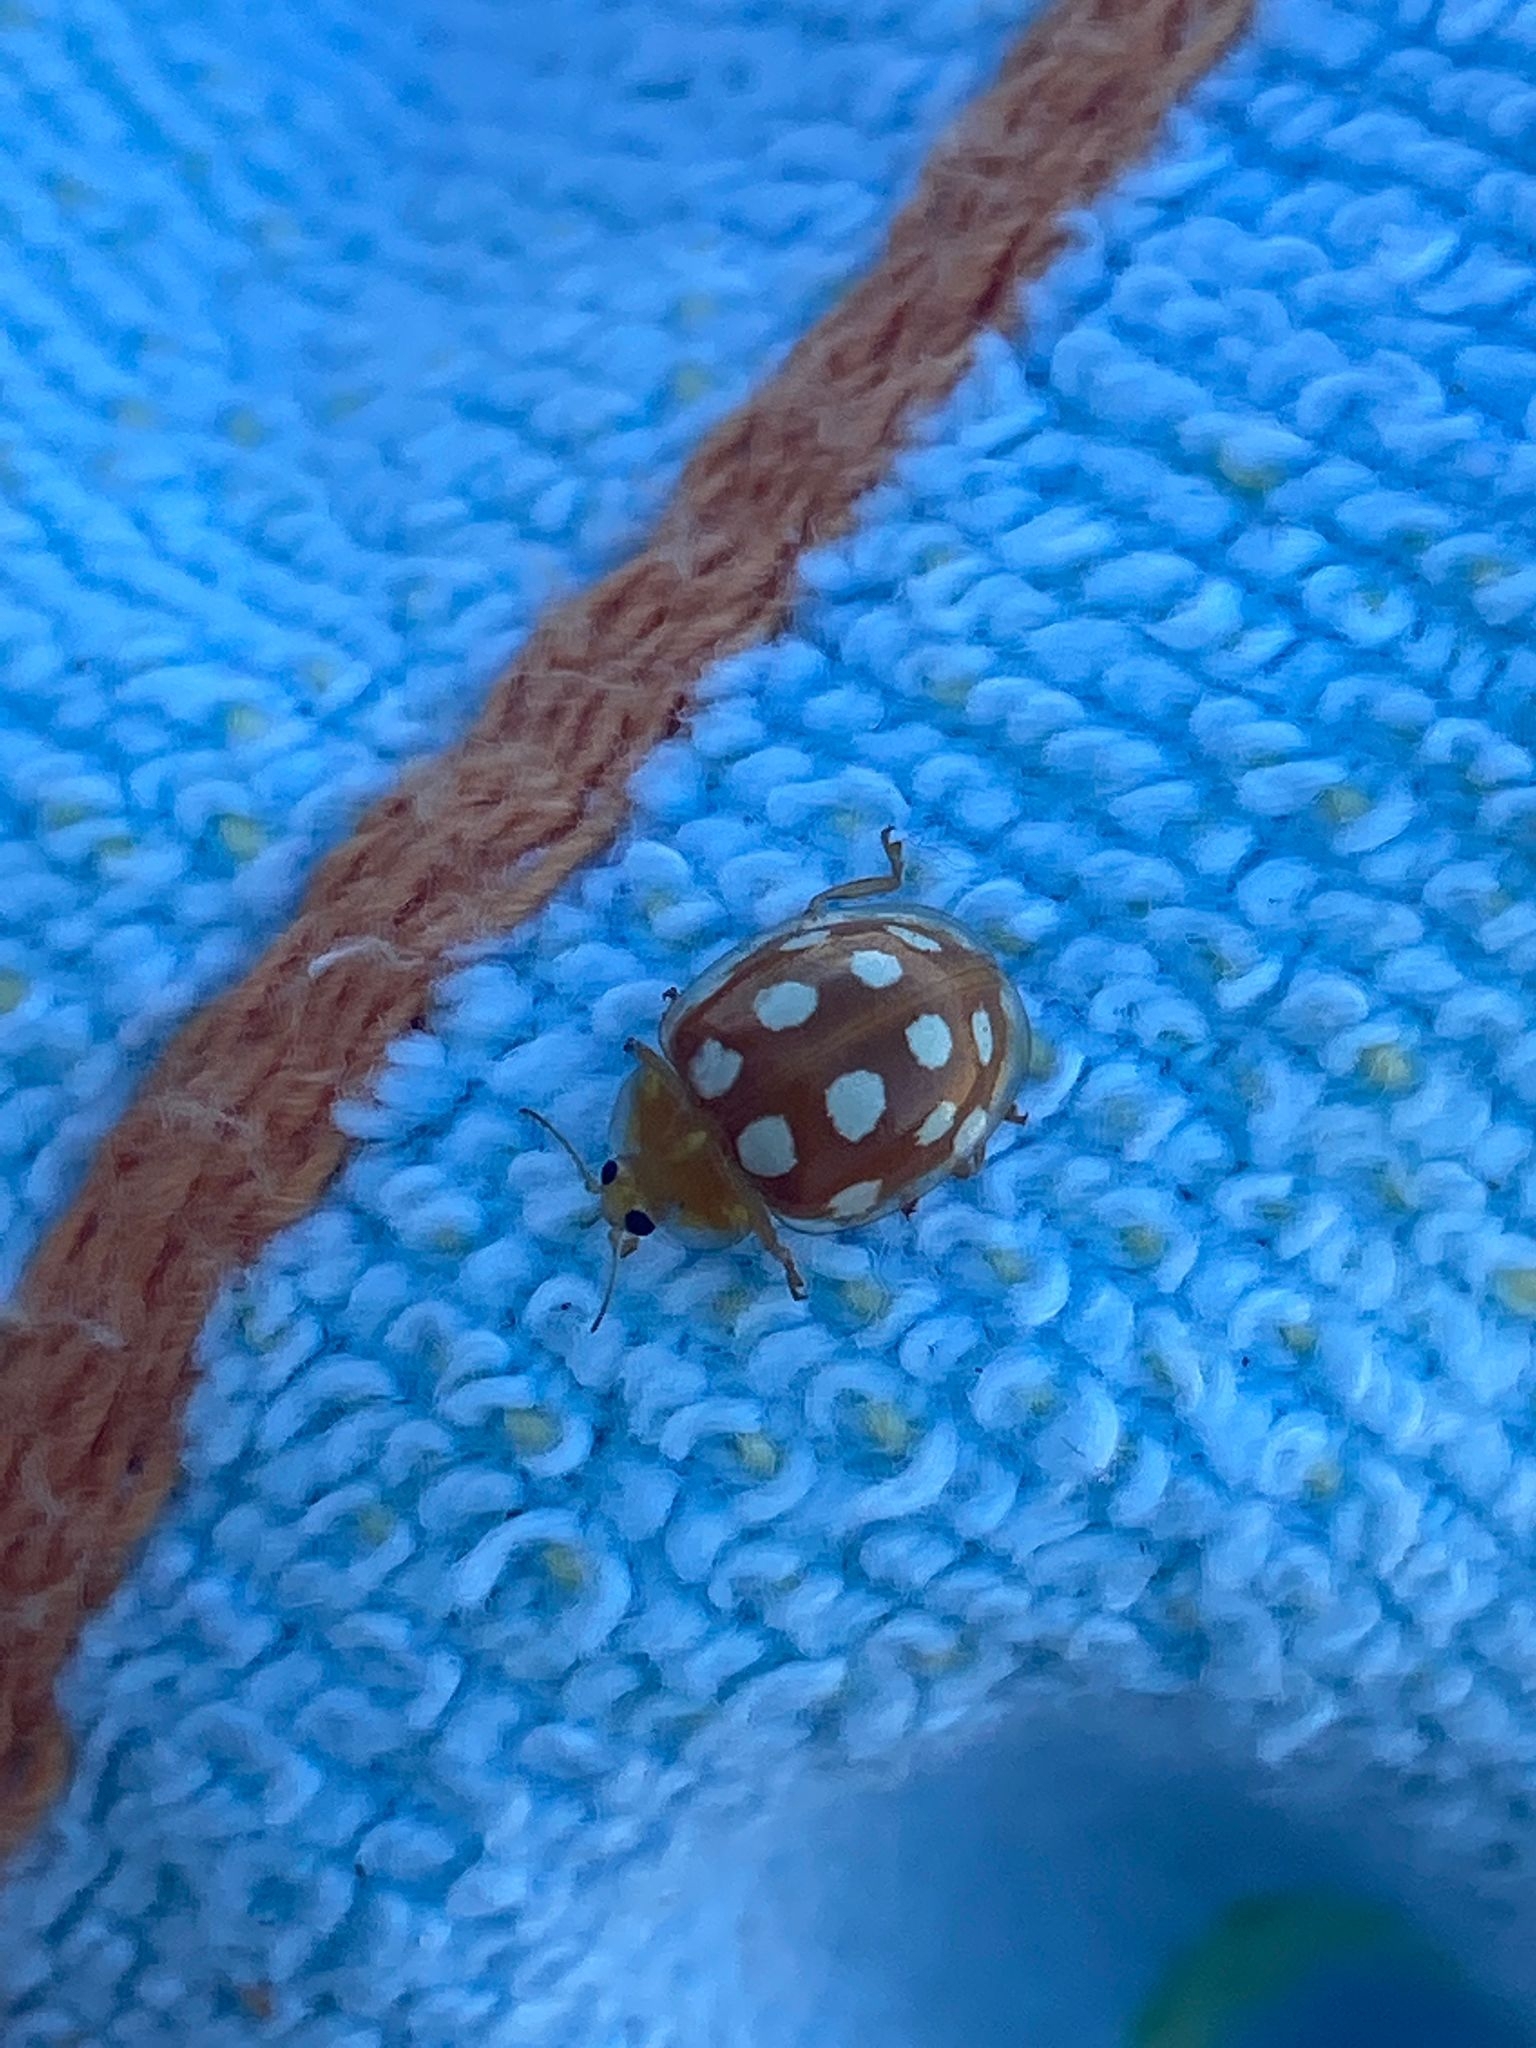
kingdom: Animalia
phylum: Arthropoda
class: Insecta
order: Coleoptera
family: Coccinellidae
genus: Halyzia
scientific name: Halyzia sedecimguttata
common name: Orange ladybird
